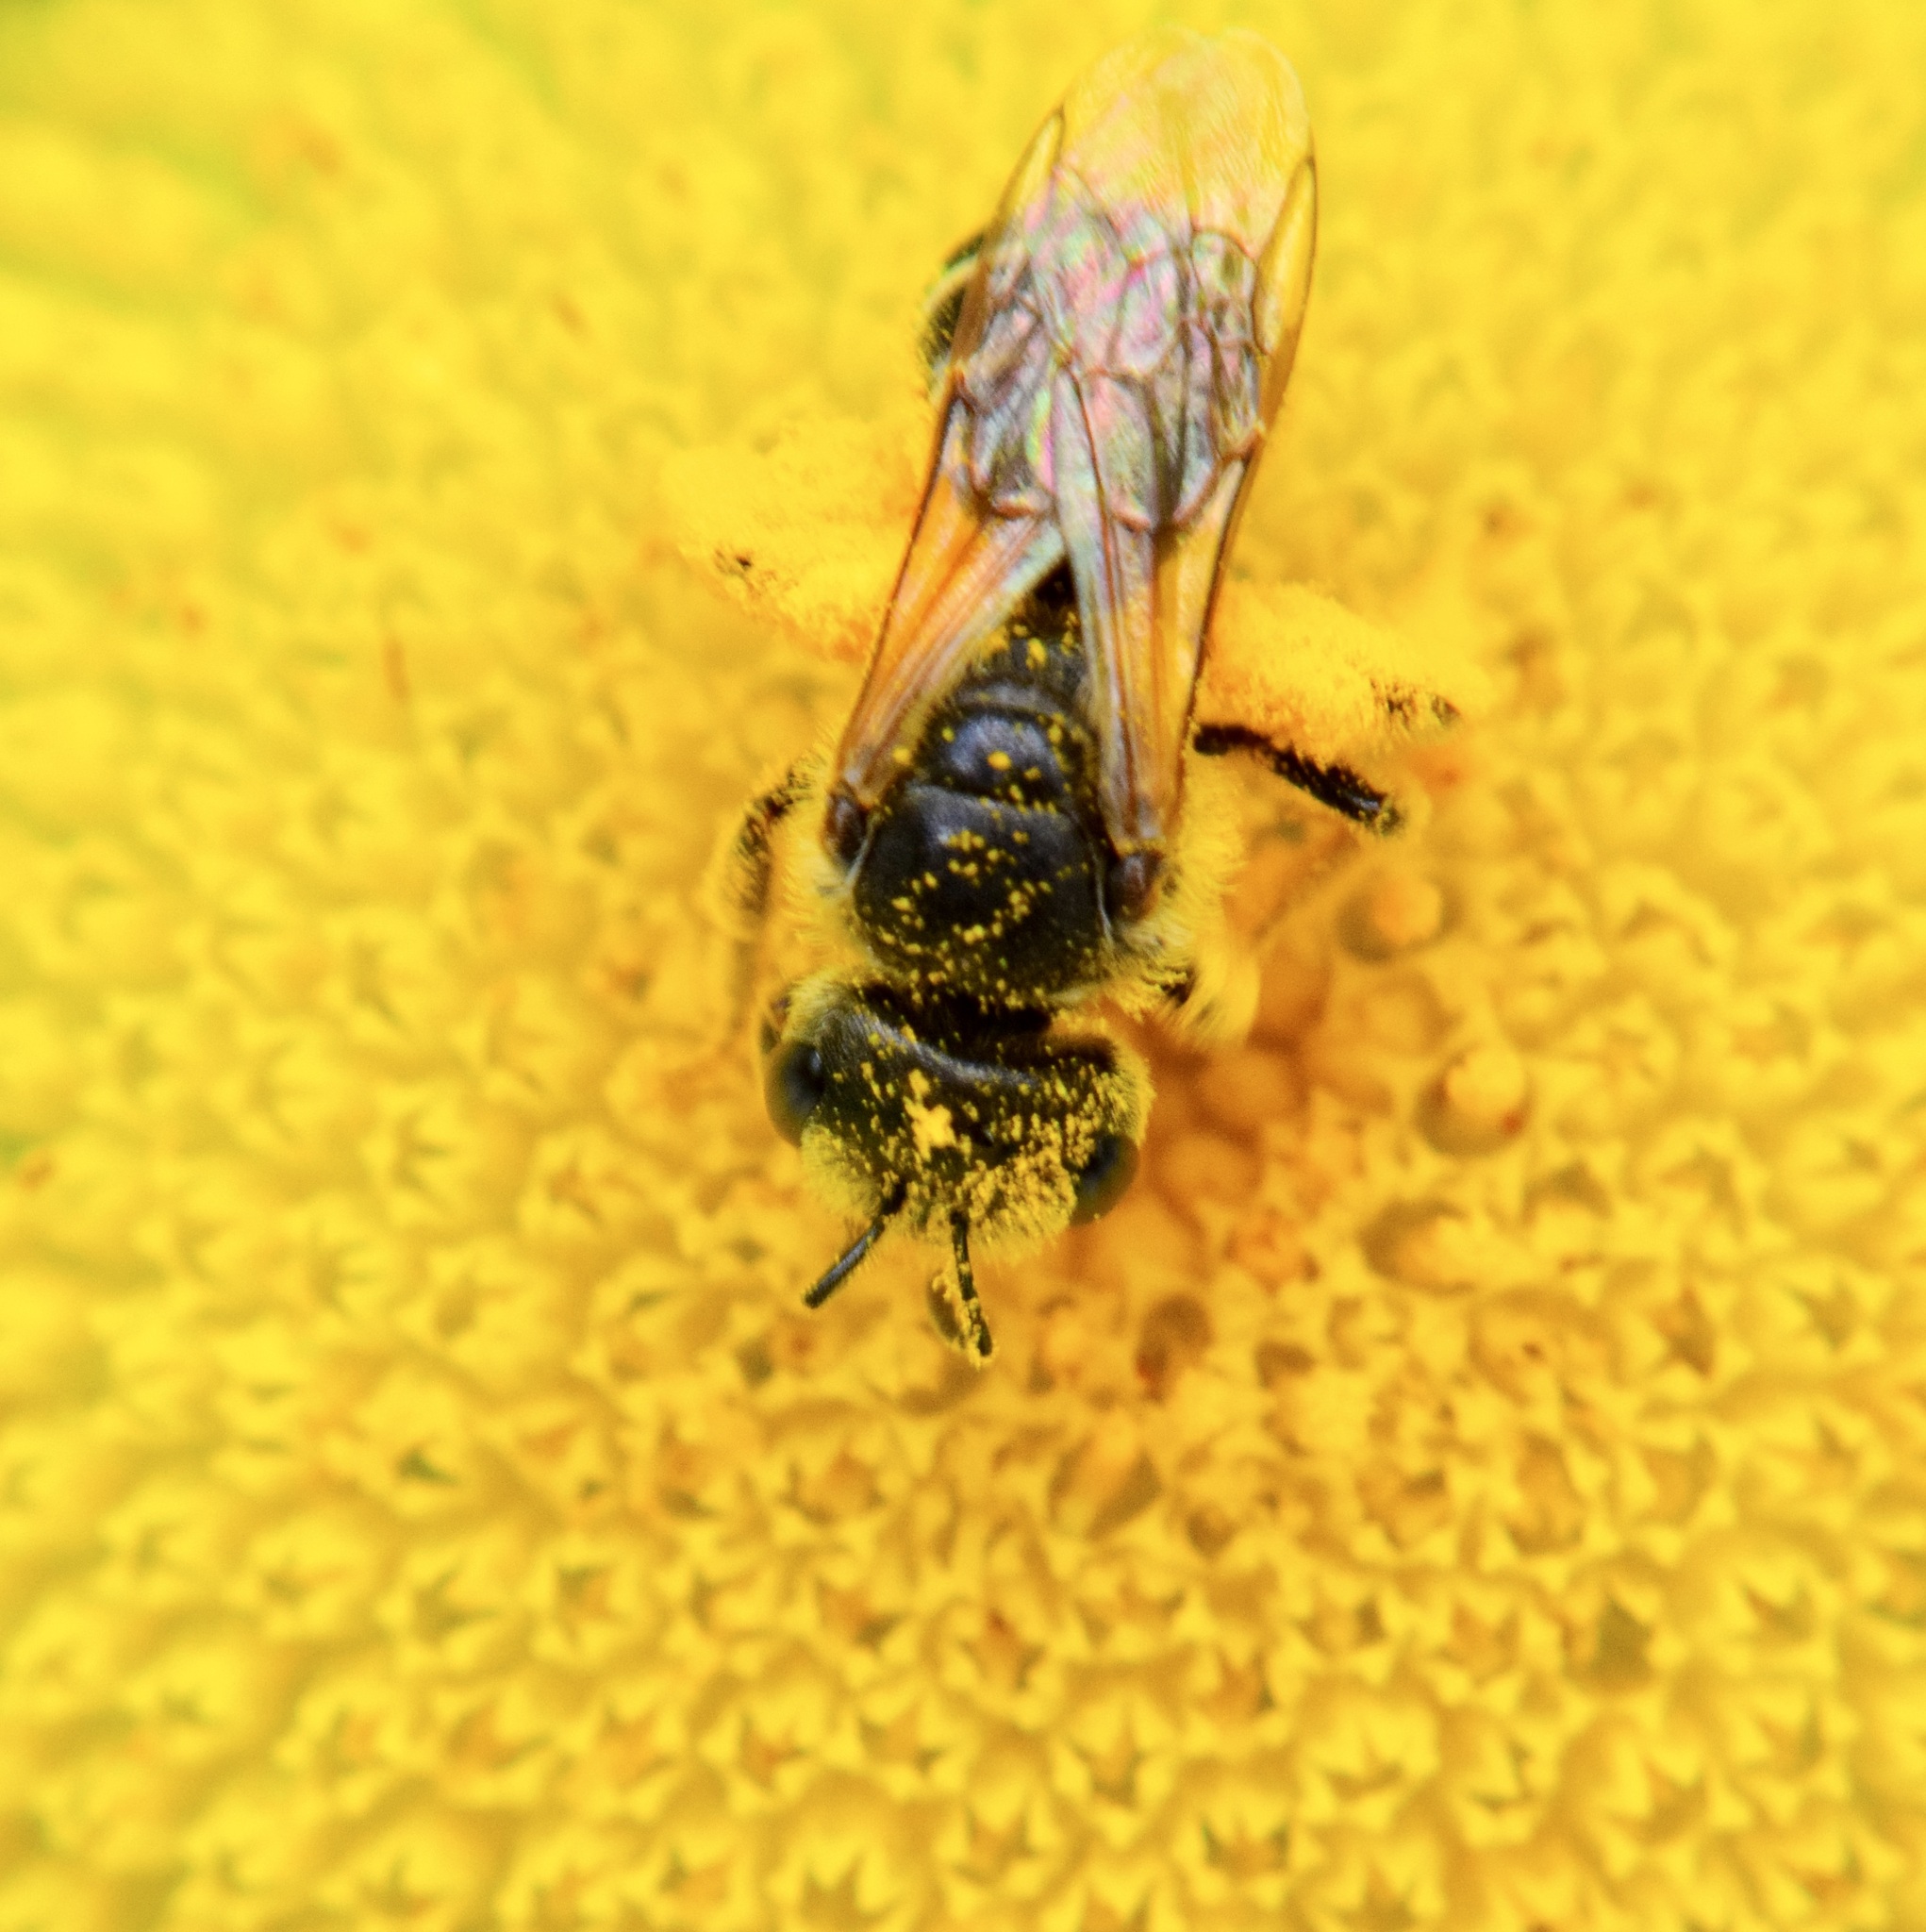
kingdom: Animalia
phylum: Arthropoda
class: Insecta
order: Hymenoptera
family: Halictidae
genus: Halictus
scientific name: Halictus ligatus
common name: Ligated furrow bee
